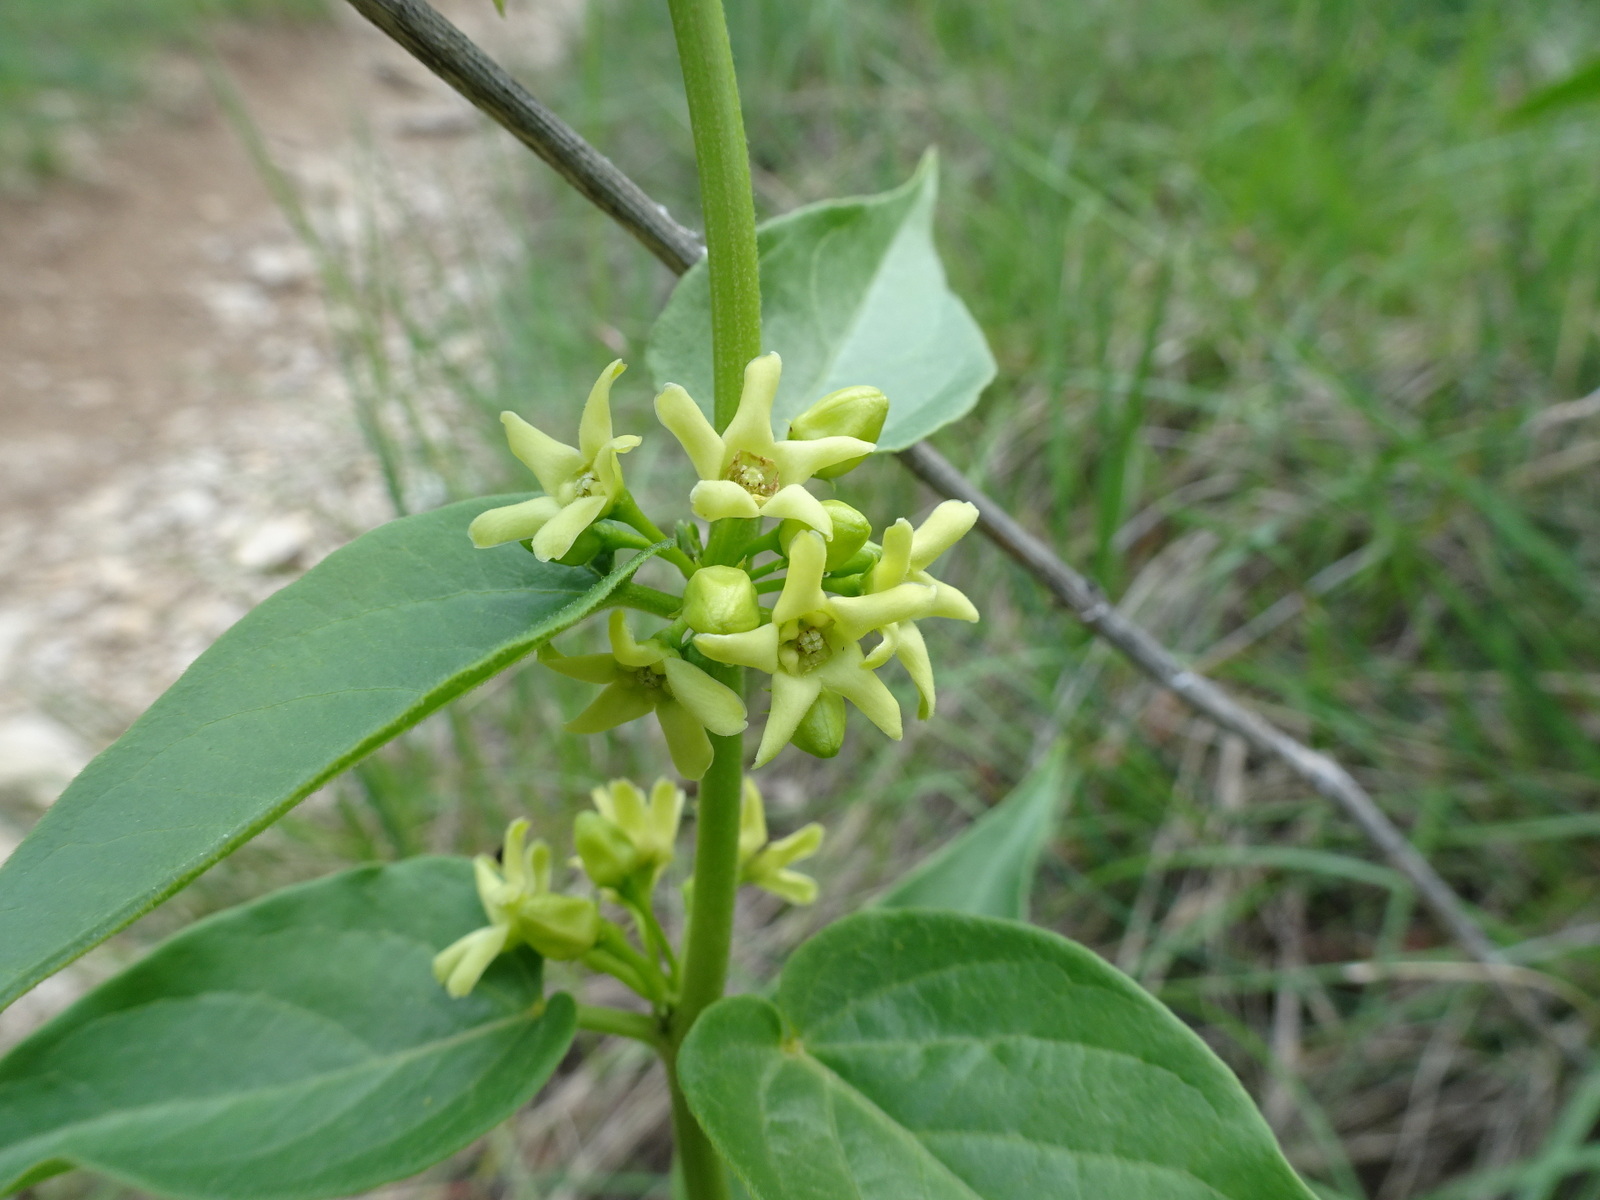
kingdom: Plantae
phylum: Tracheophyta
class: Magnoliopsida
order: Gentianales
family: Apocynaceae
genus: Vincetoxicum
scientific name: Vincetoxicum hirundinaria
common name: White swallowwort
